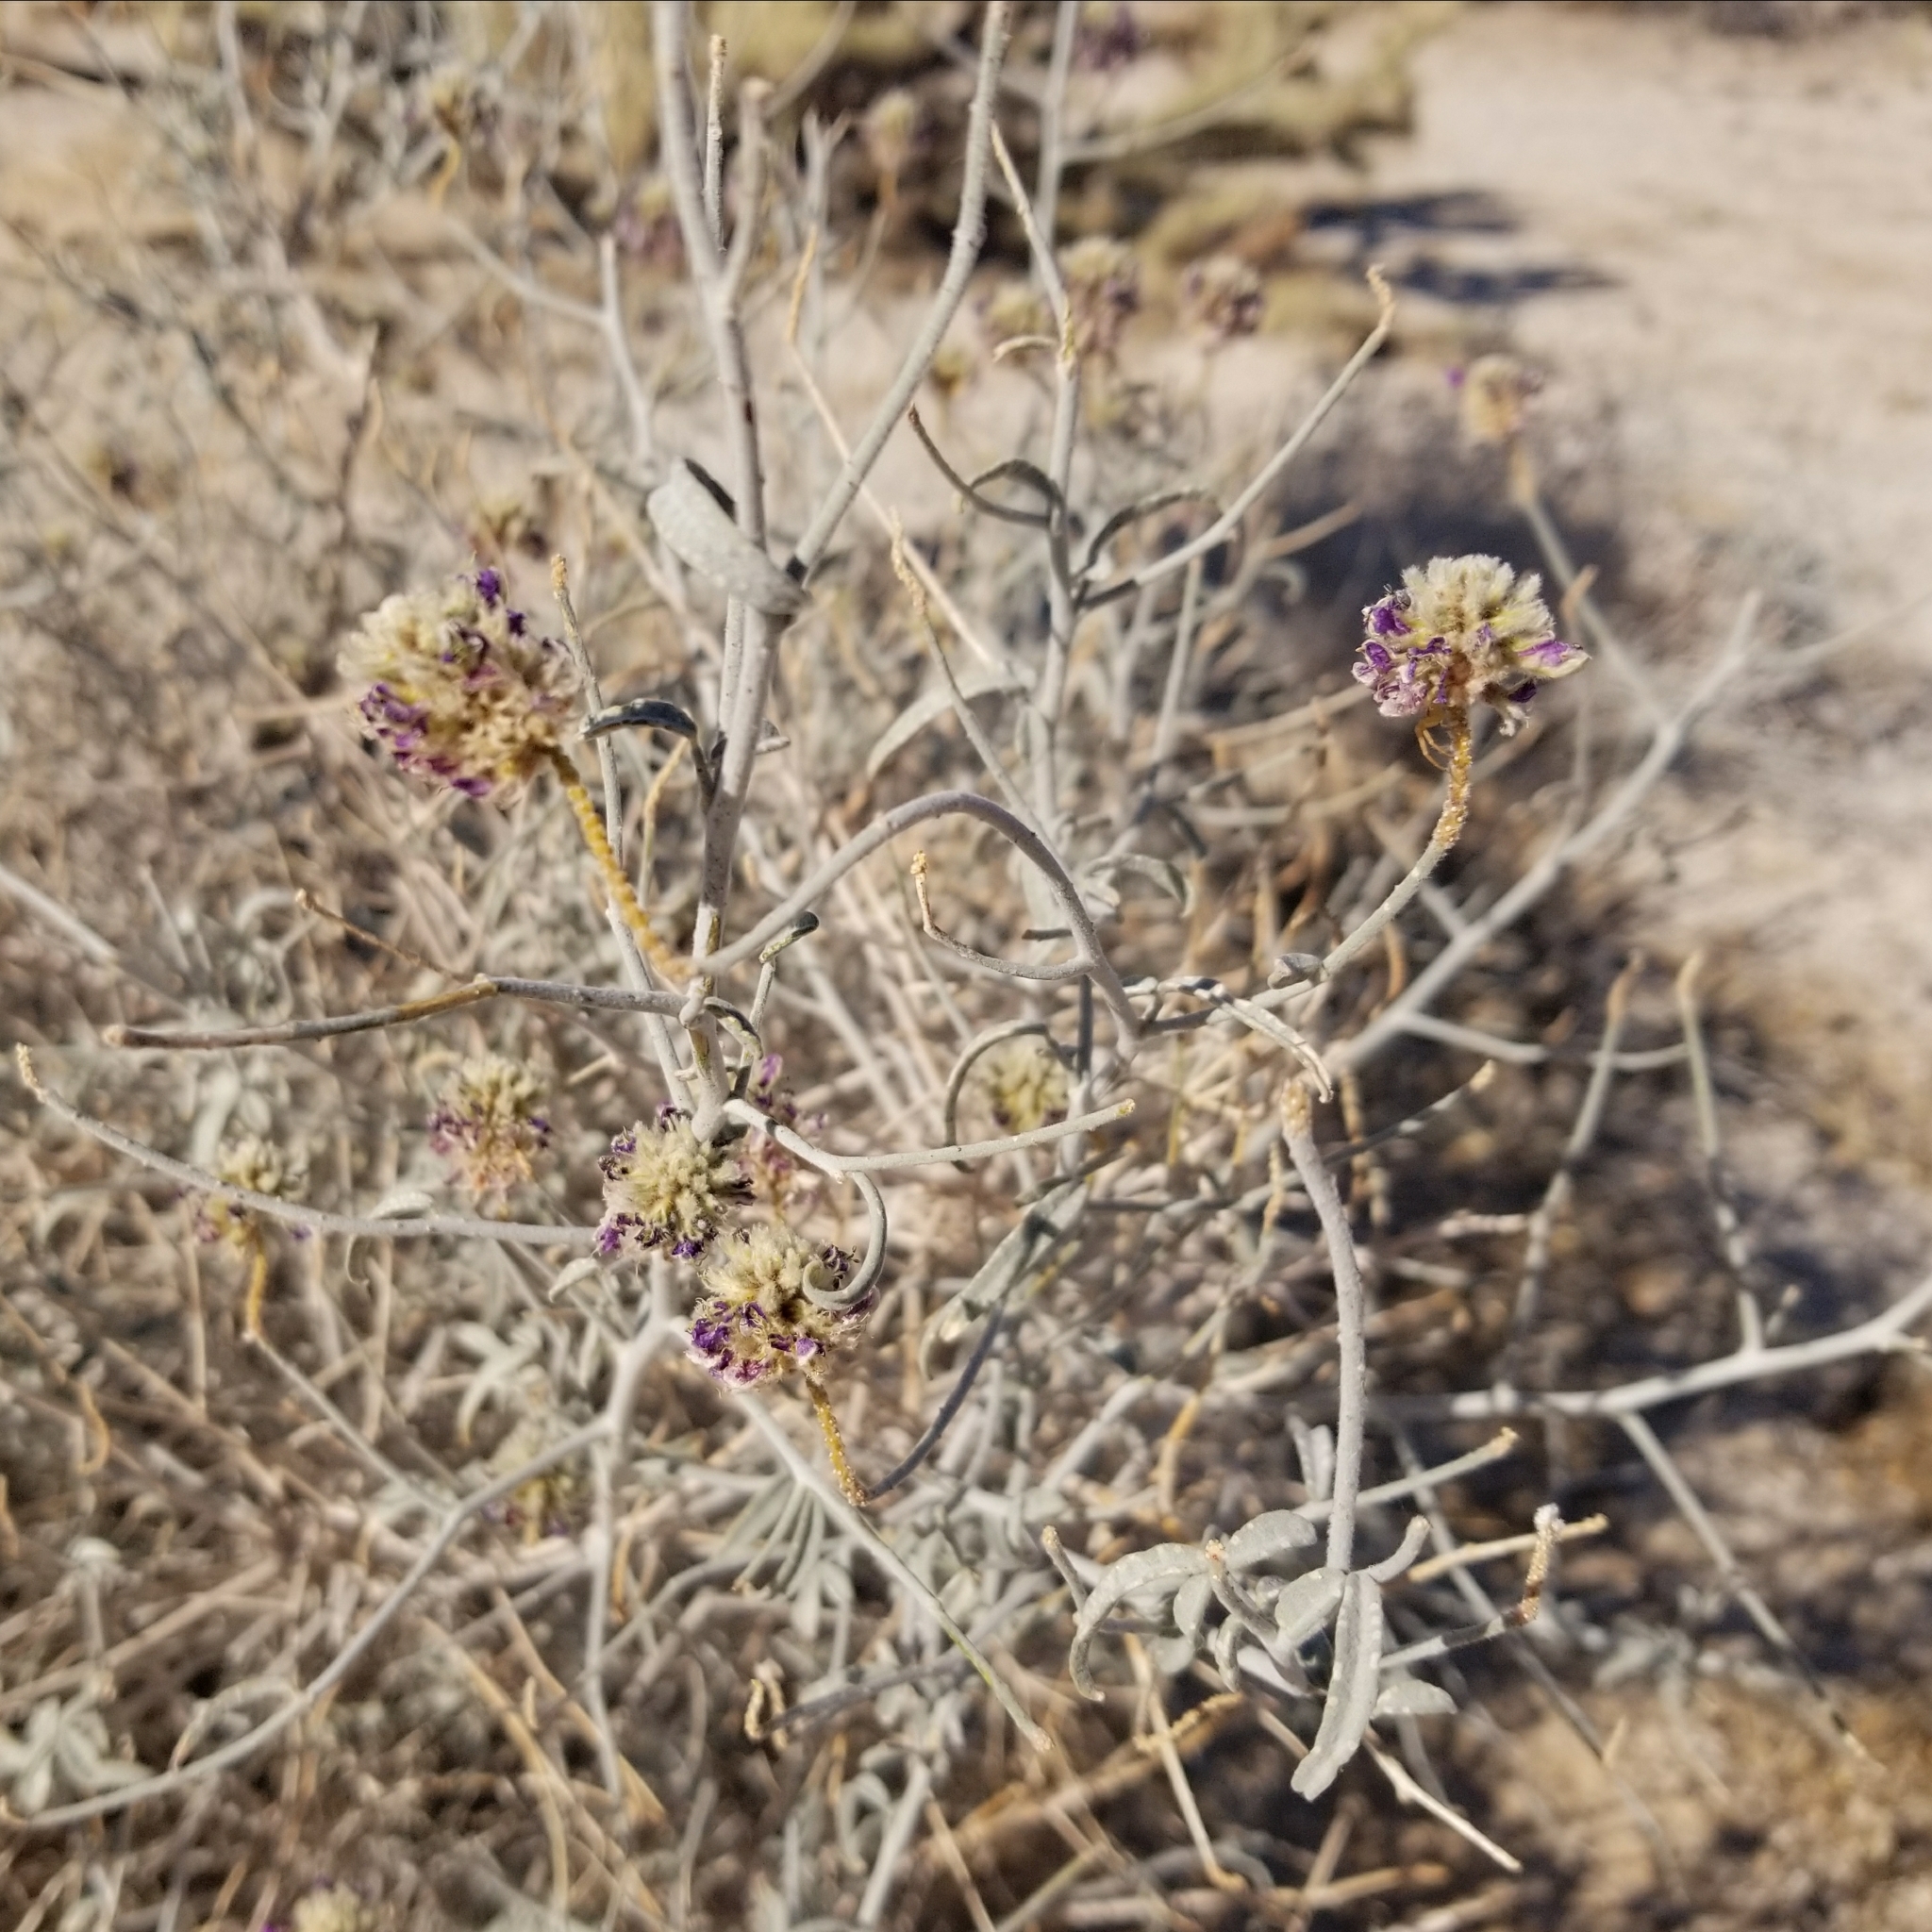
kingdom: Plantae
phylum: Tracheophyta
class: Magnoliopsida
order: Fabales
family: Fabaceae
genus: Psorothamnus
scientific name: Psorothamnus emoryi
